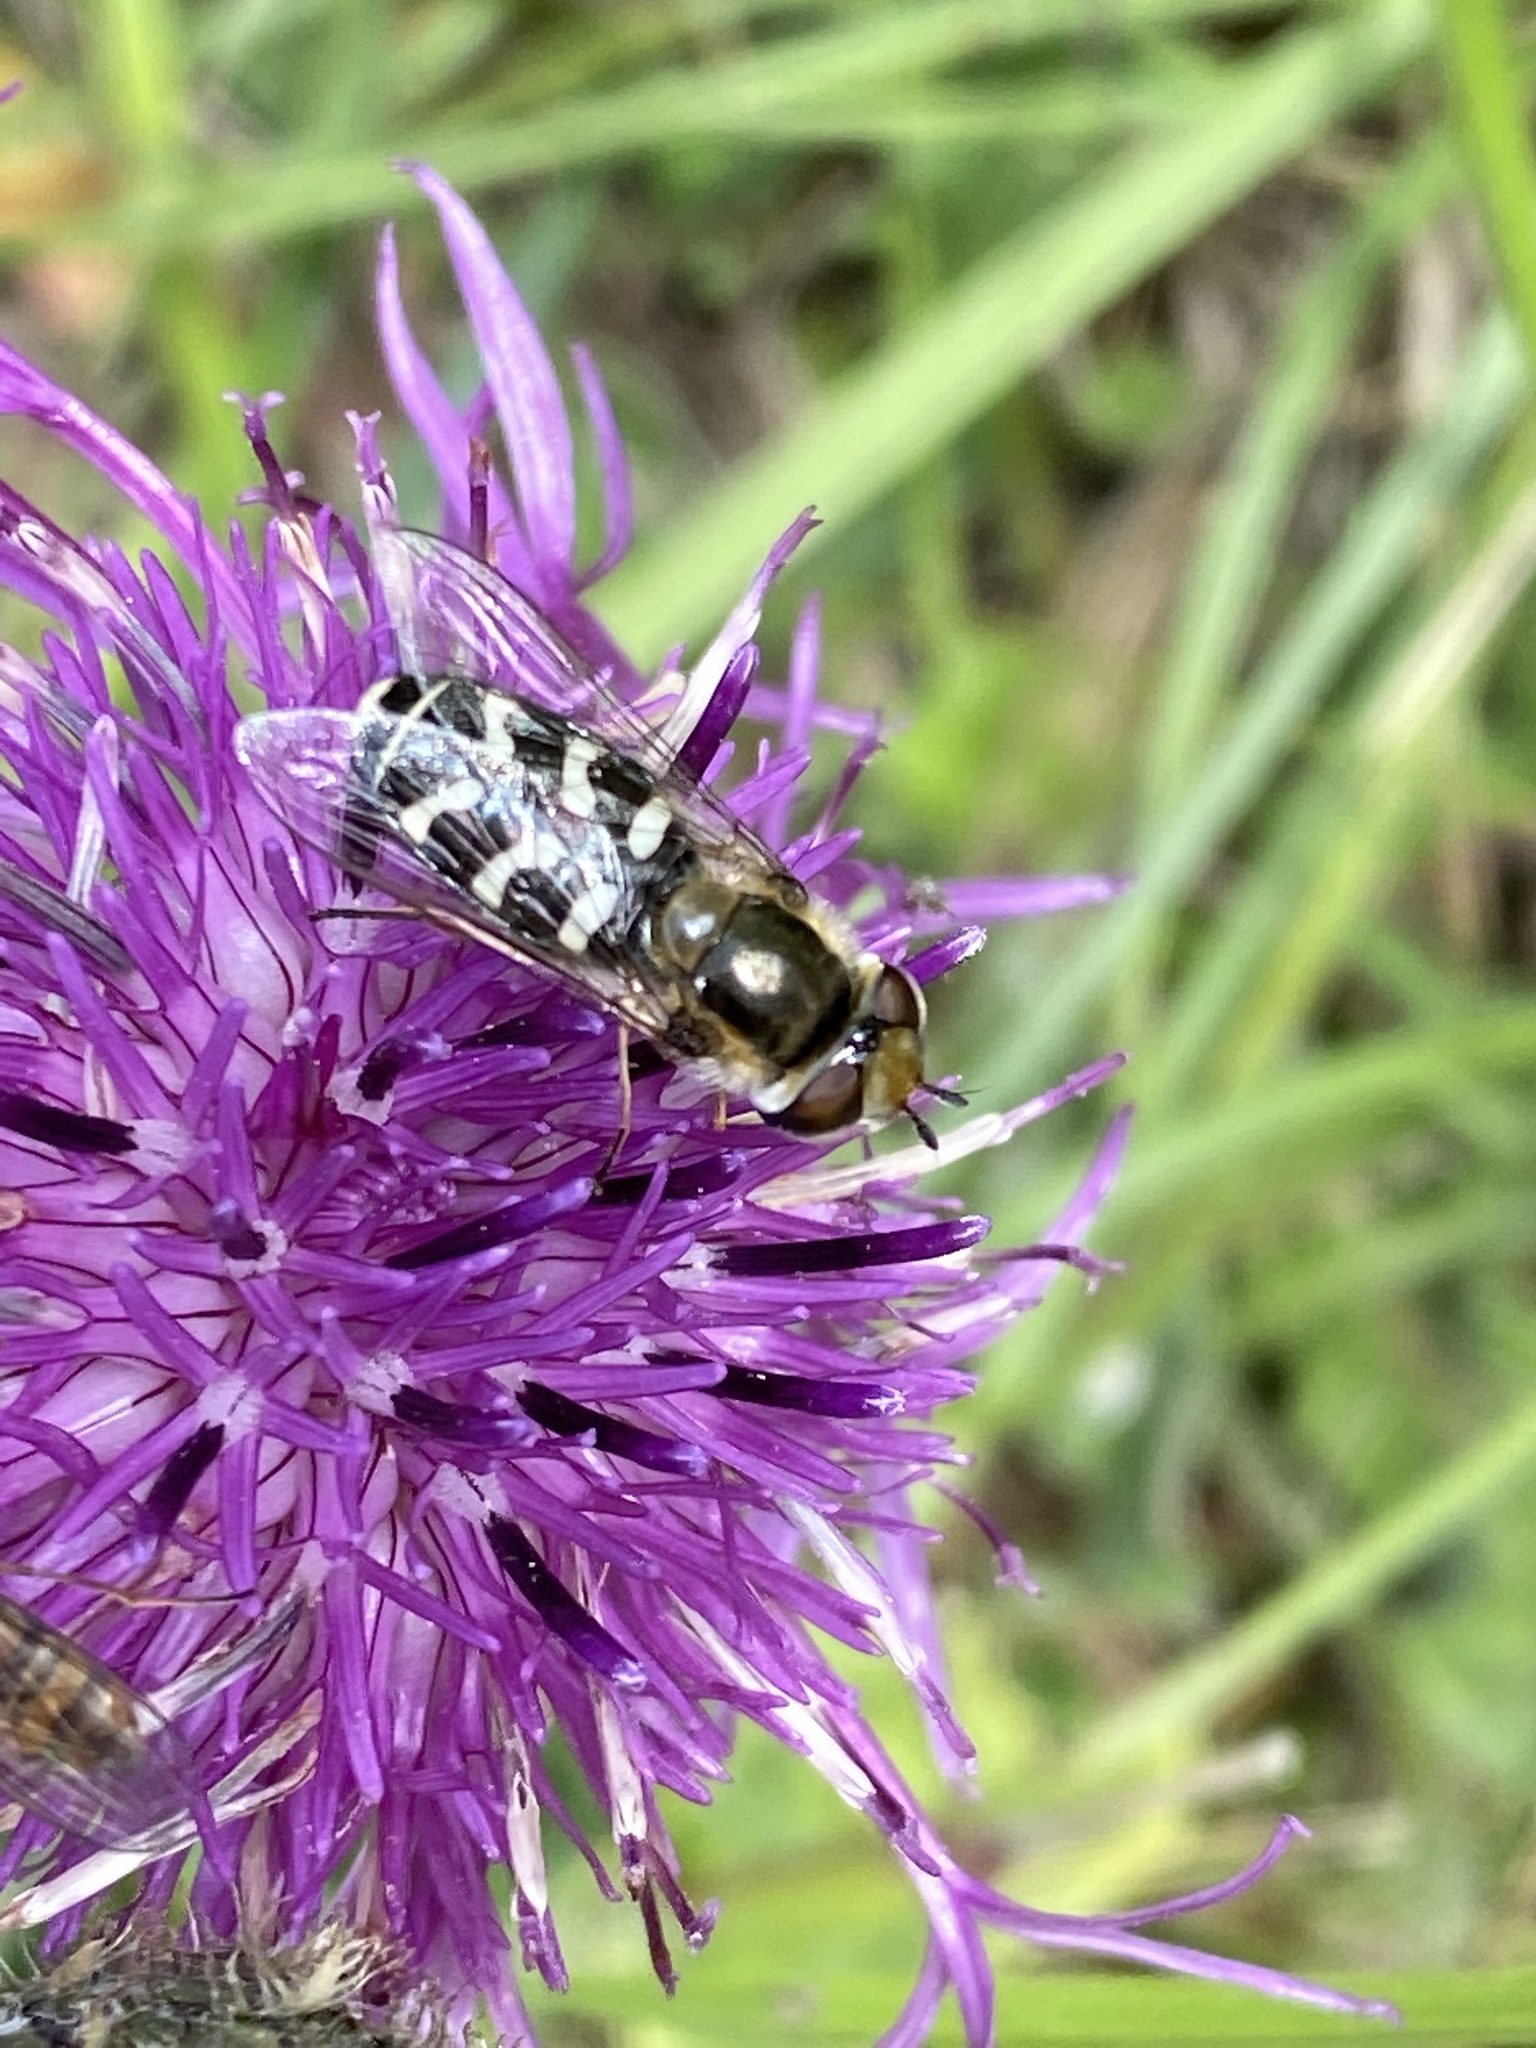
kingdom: Animalia
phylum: Arthropoda
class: Insecta
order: Diptera
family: Syrphidae
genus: Scaeva
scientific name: Scaeva pyrastri
